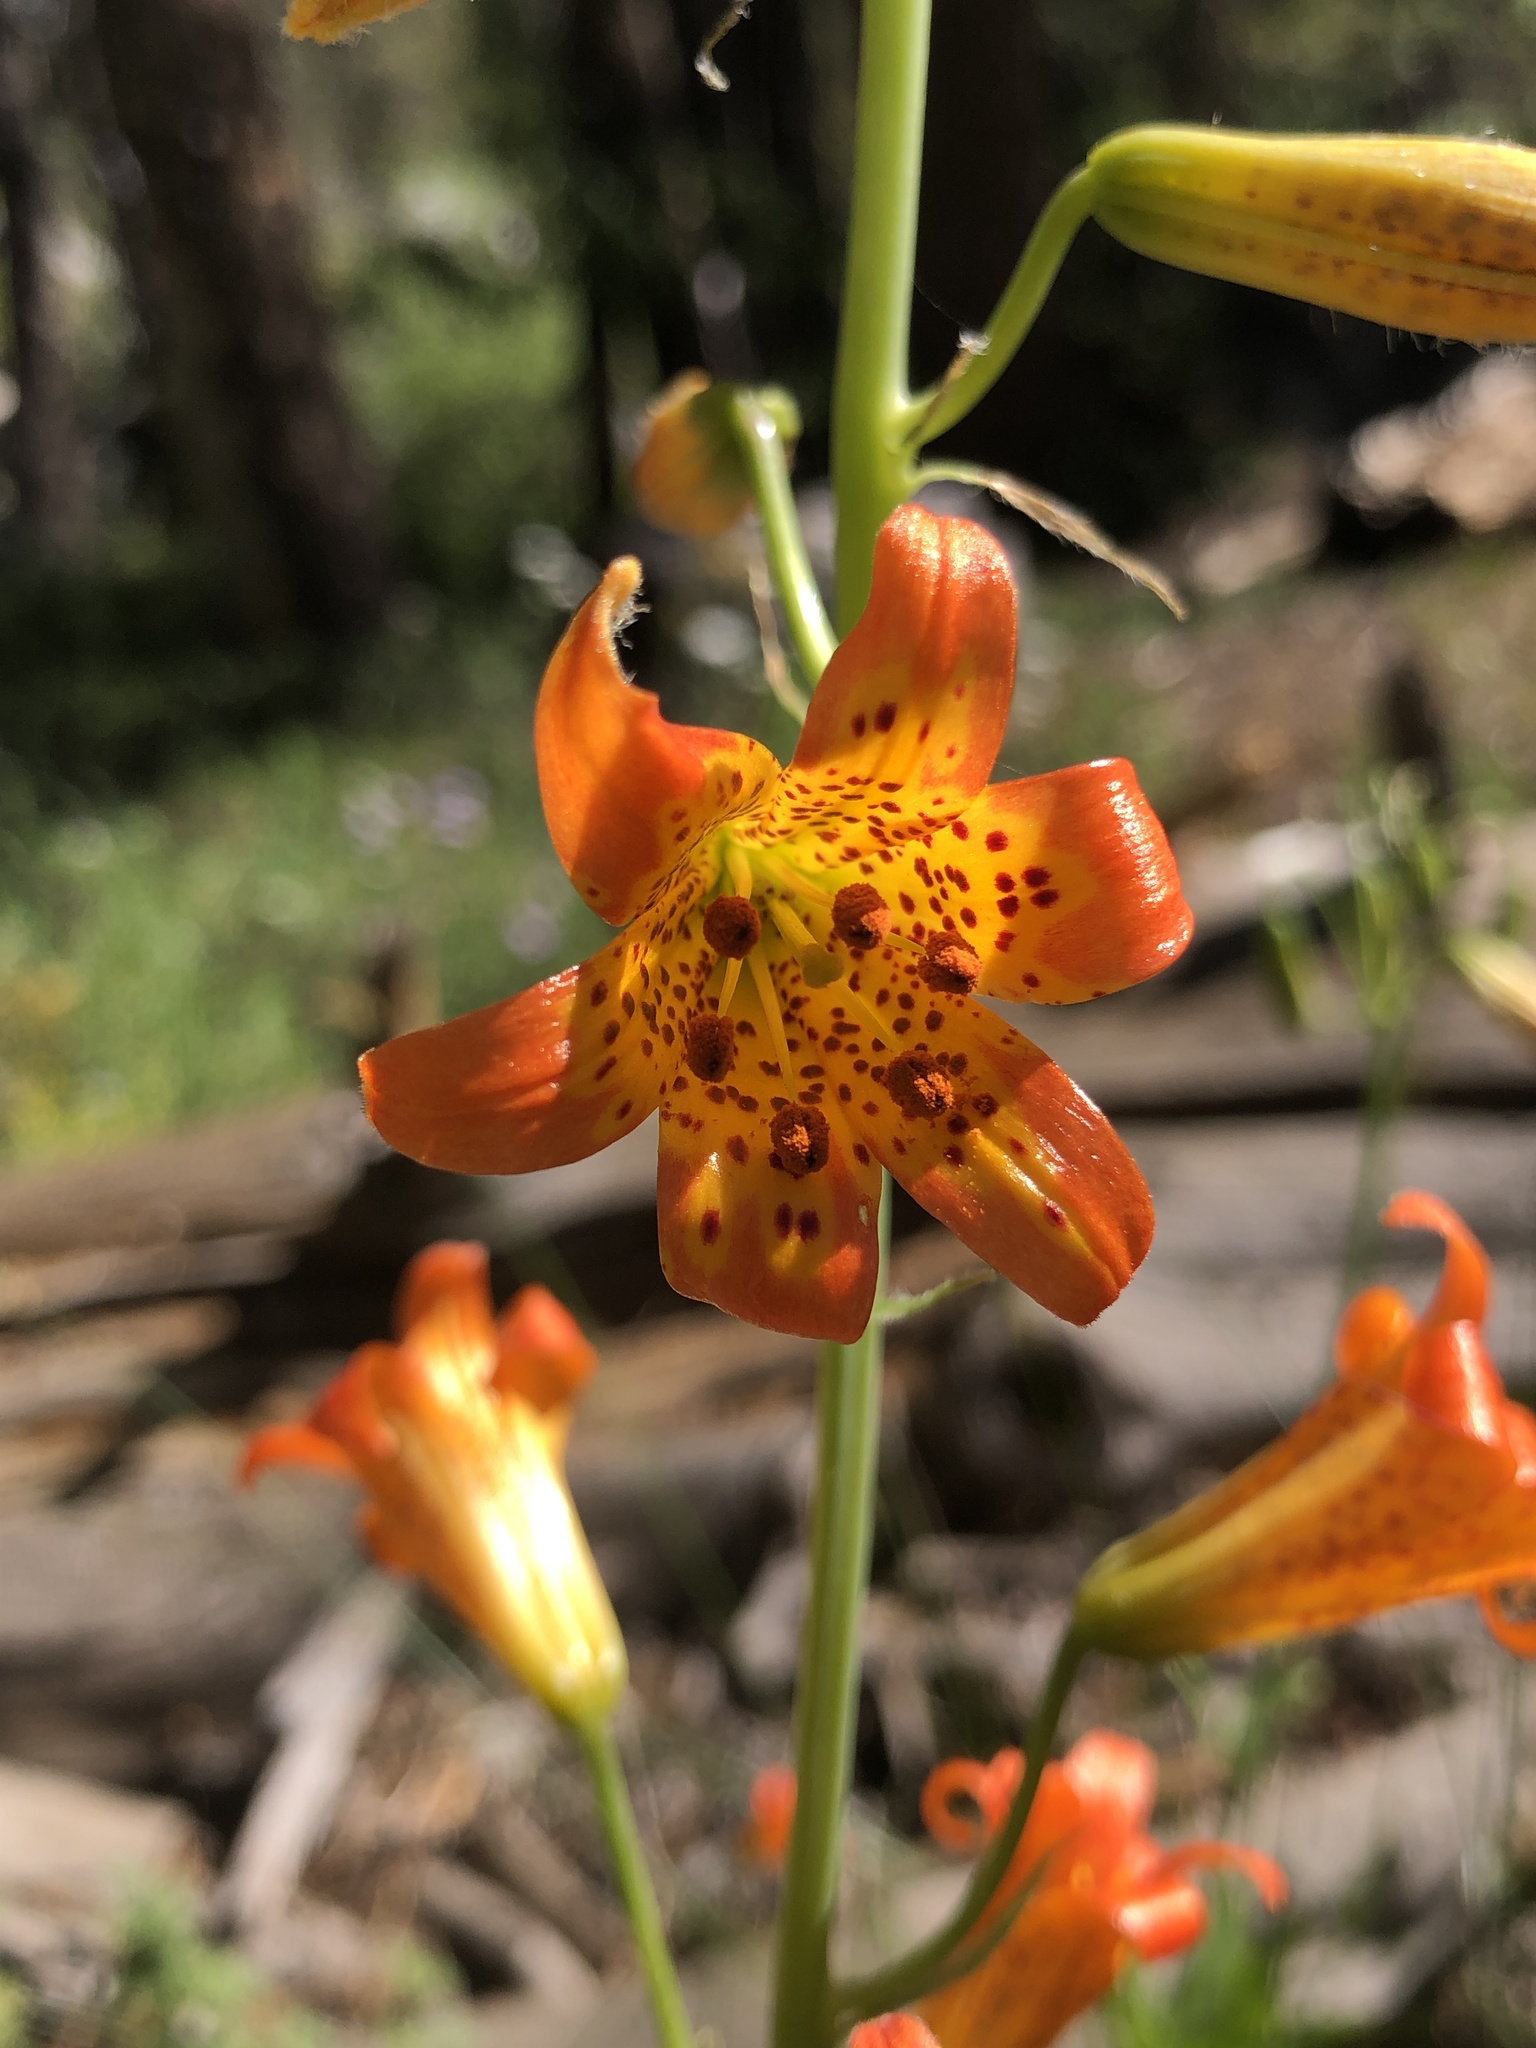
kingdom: Plantae
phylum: Tracheophyta
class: Liliopsida
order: Liliales
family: Liliaceae
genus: Lilium
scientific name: Lilium parvum
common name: Alpine lily
